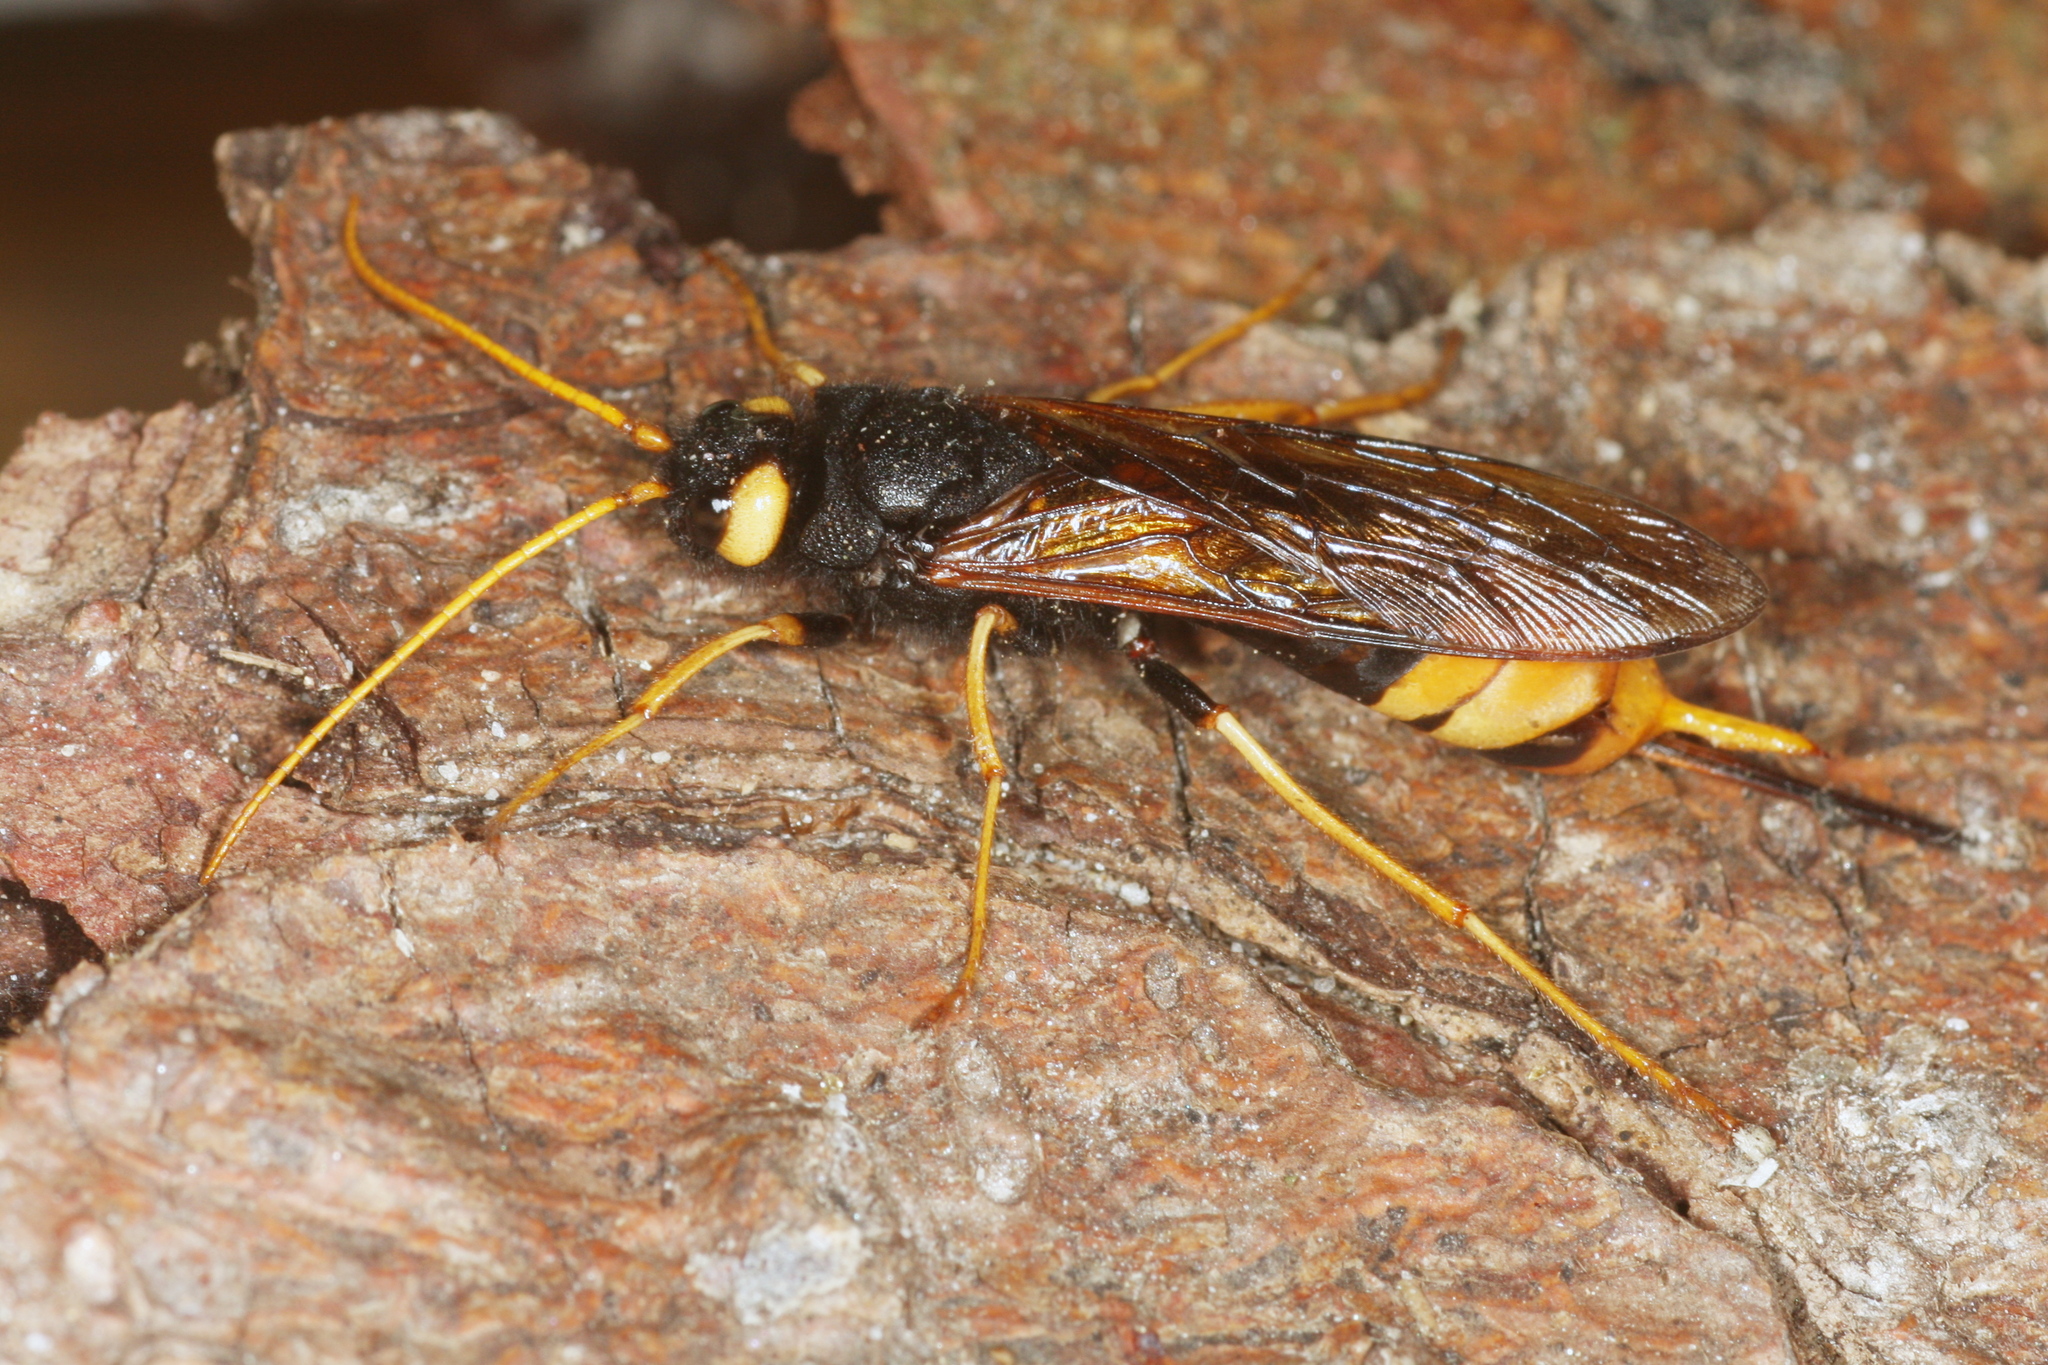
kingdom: Animalia
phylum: Arthropoda
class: Insecta
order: Hymenoptera
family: Siricidae
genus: Urocerus
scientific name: Urocerus gigas
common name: Giant woodwasp
